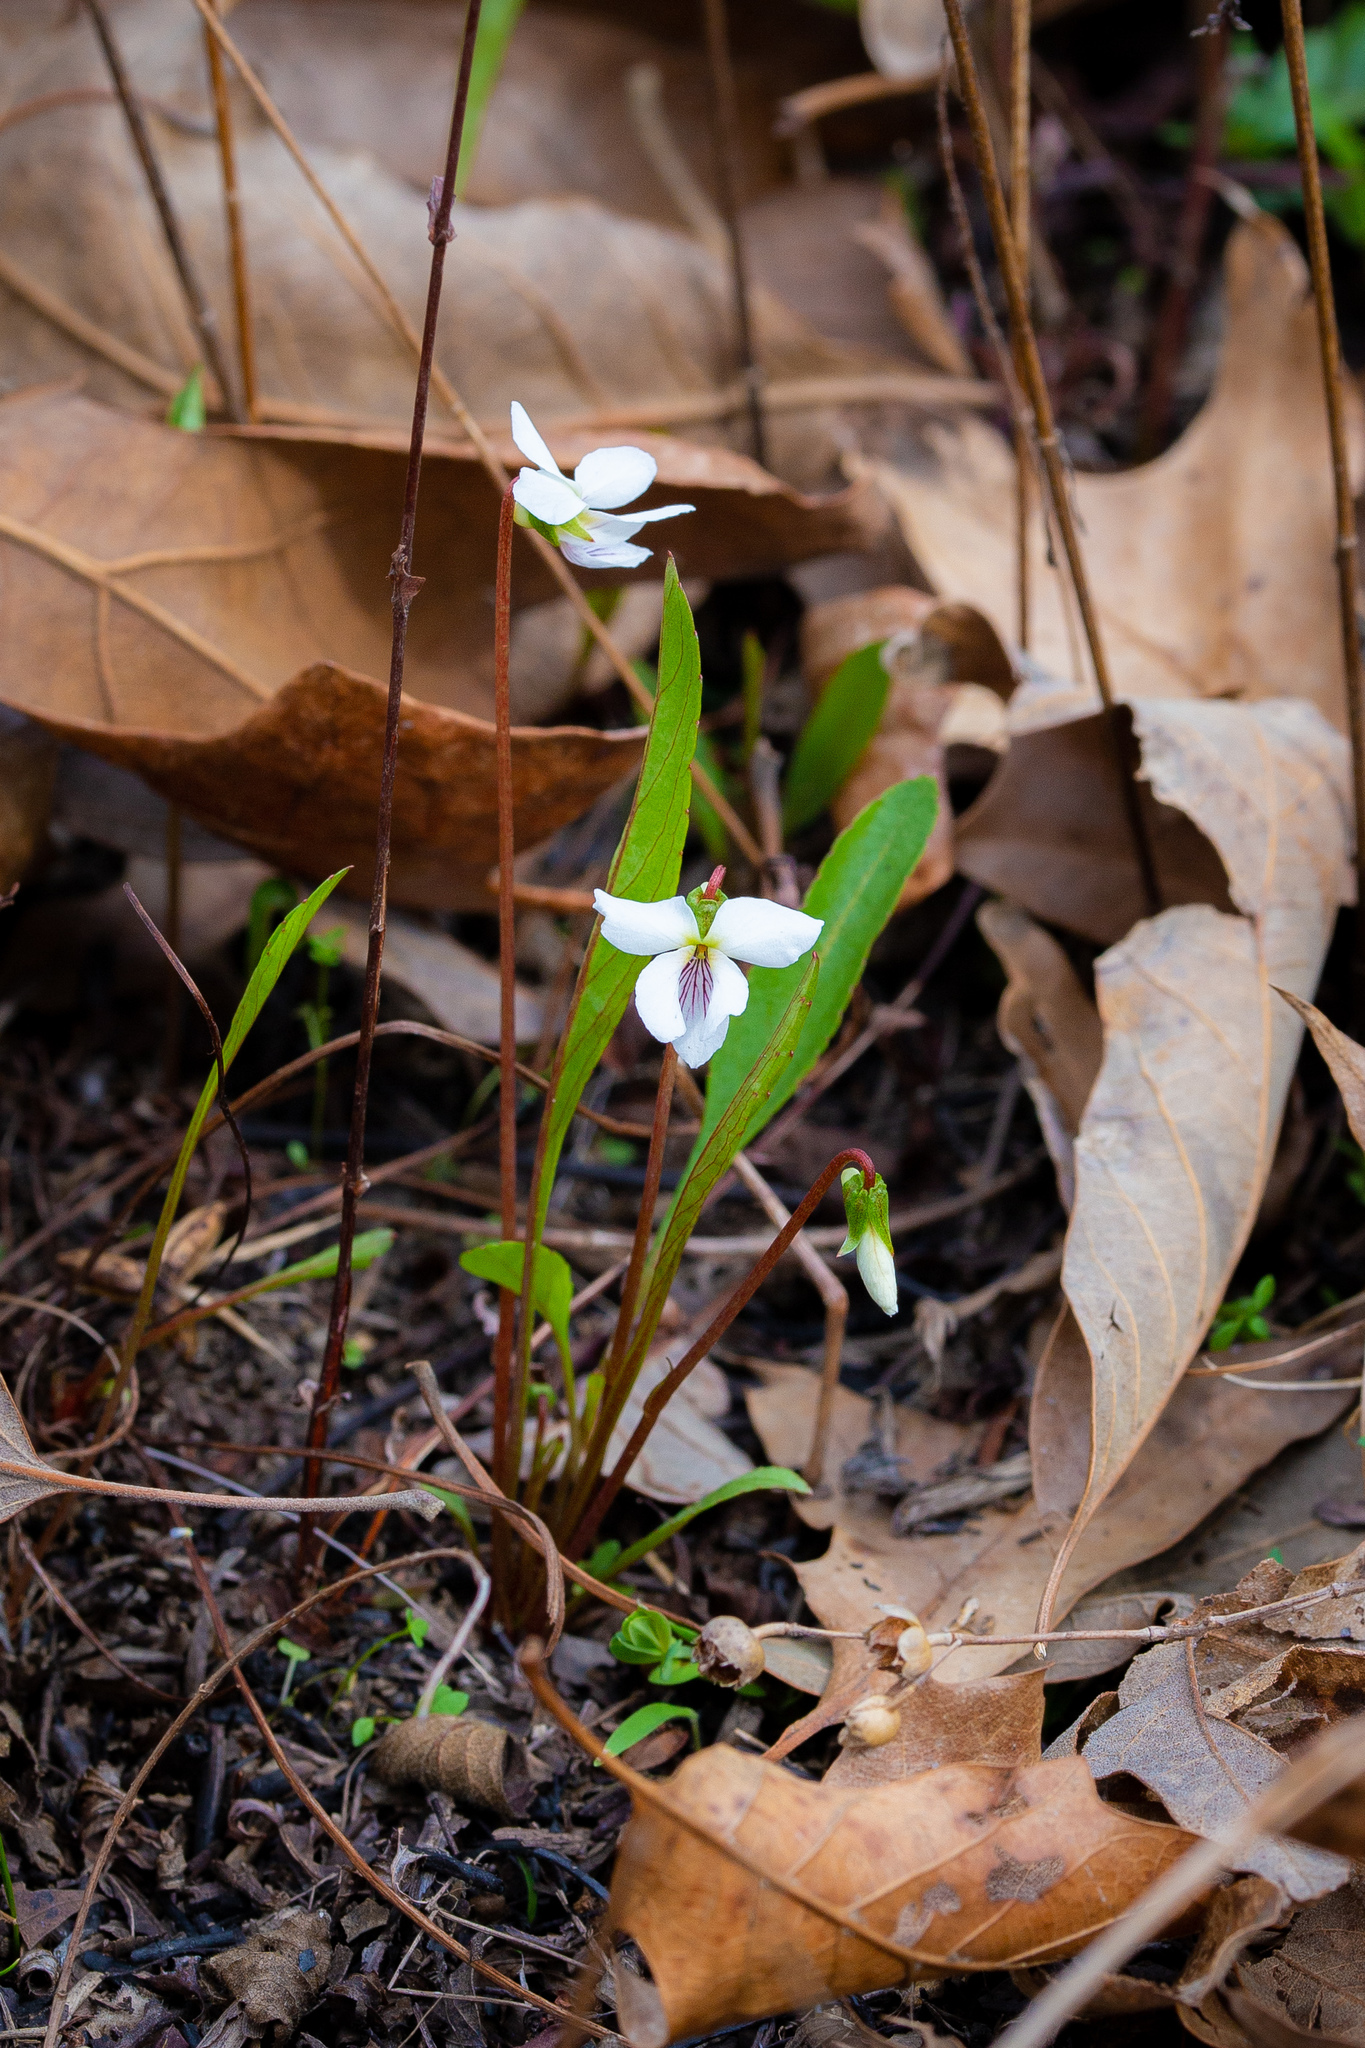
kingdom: Plantae
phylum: Tracheophyta
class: Magnoliopsida
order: Malpighiales
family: Violaceae
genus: Viola
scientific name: Viola lanceolata
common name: Bog white violet
